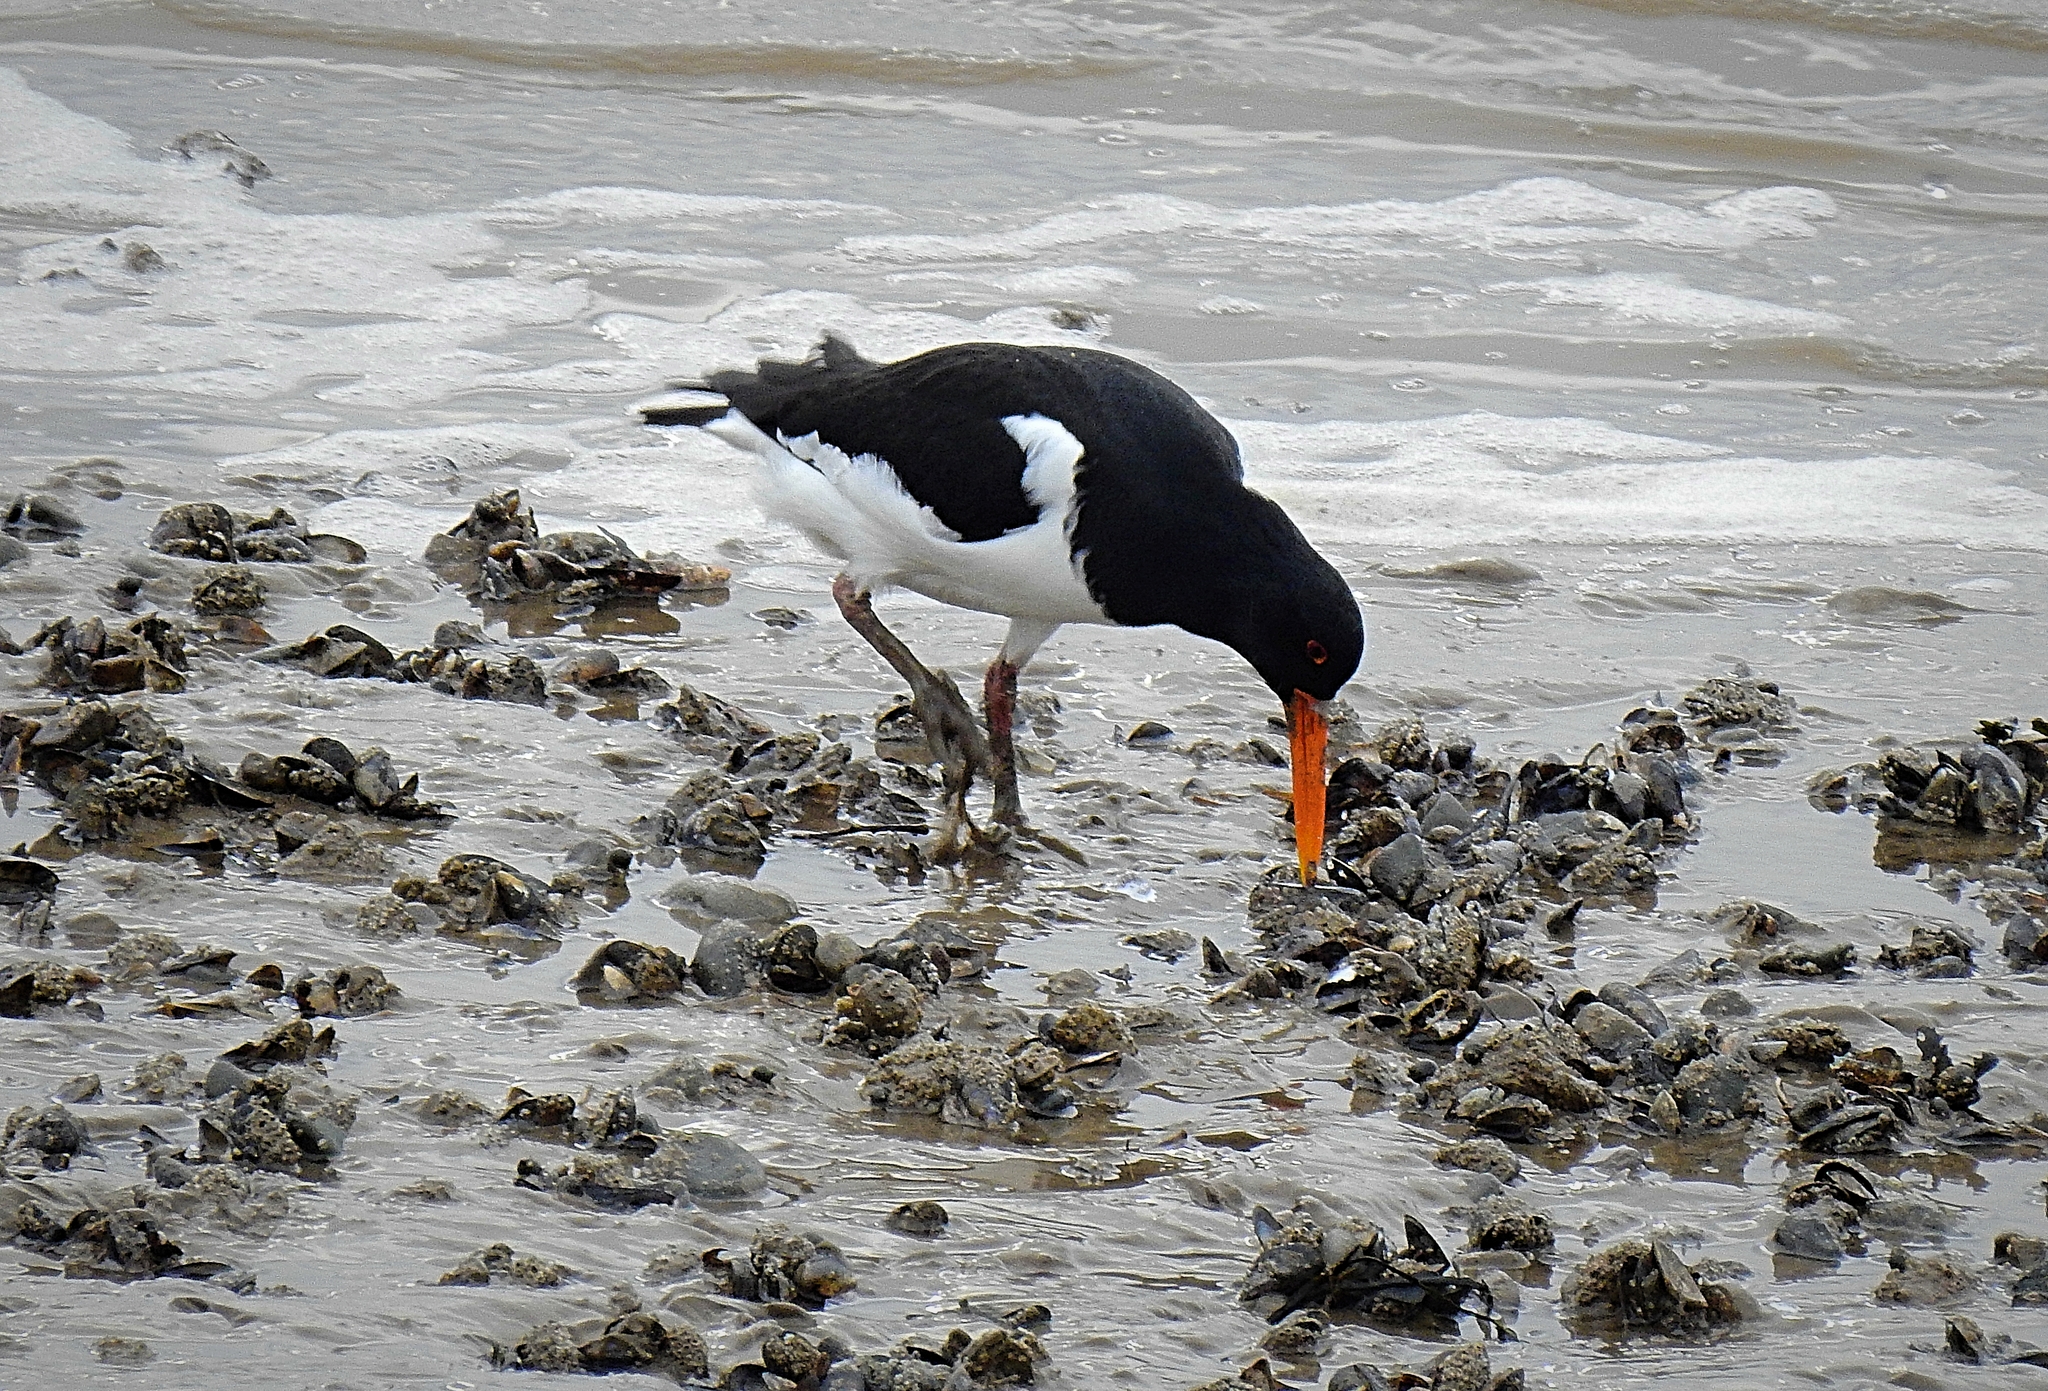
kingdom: Animalia
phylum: Chordata
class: Aves
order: Charadriiformes
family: Haematopodidae
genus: Haematopus
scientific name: Haematopus ostralegus
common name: Eurasian oystercatcher
